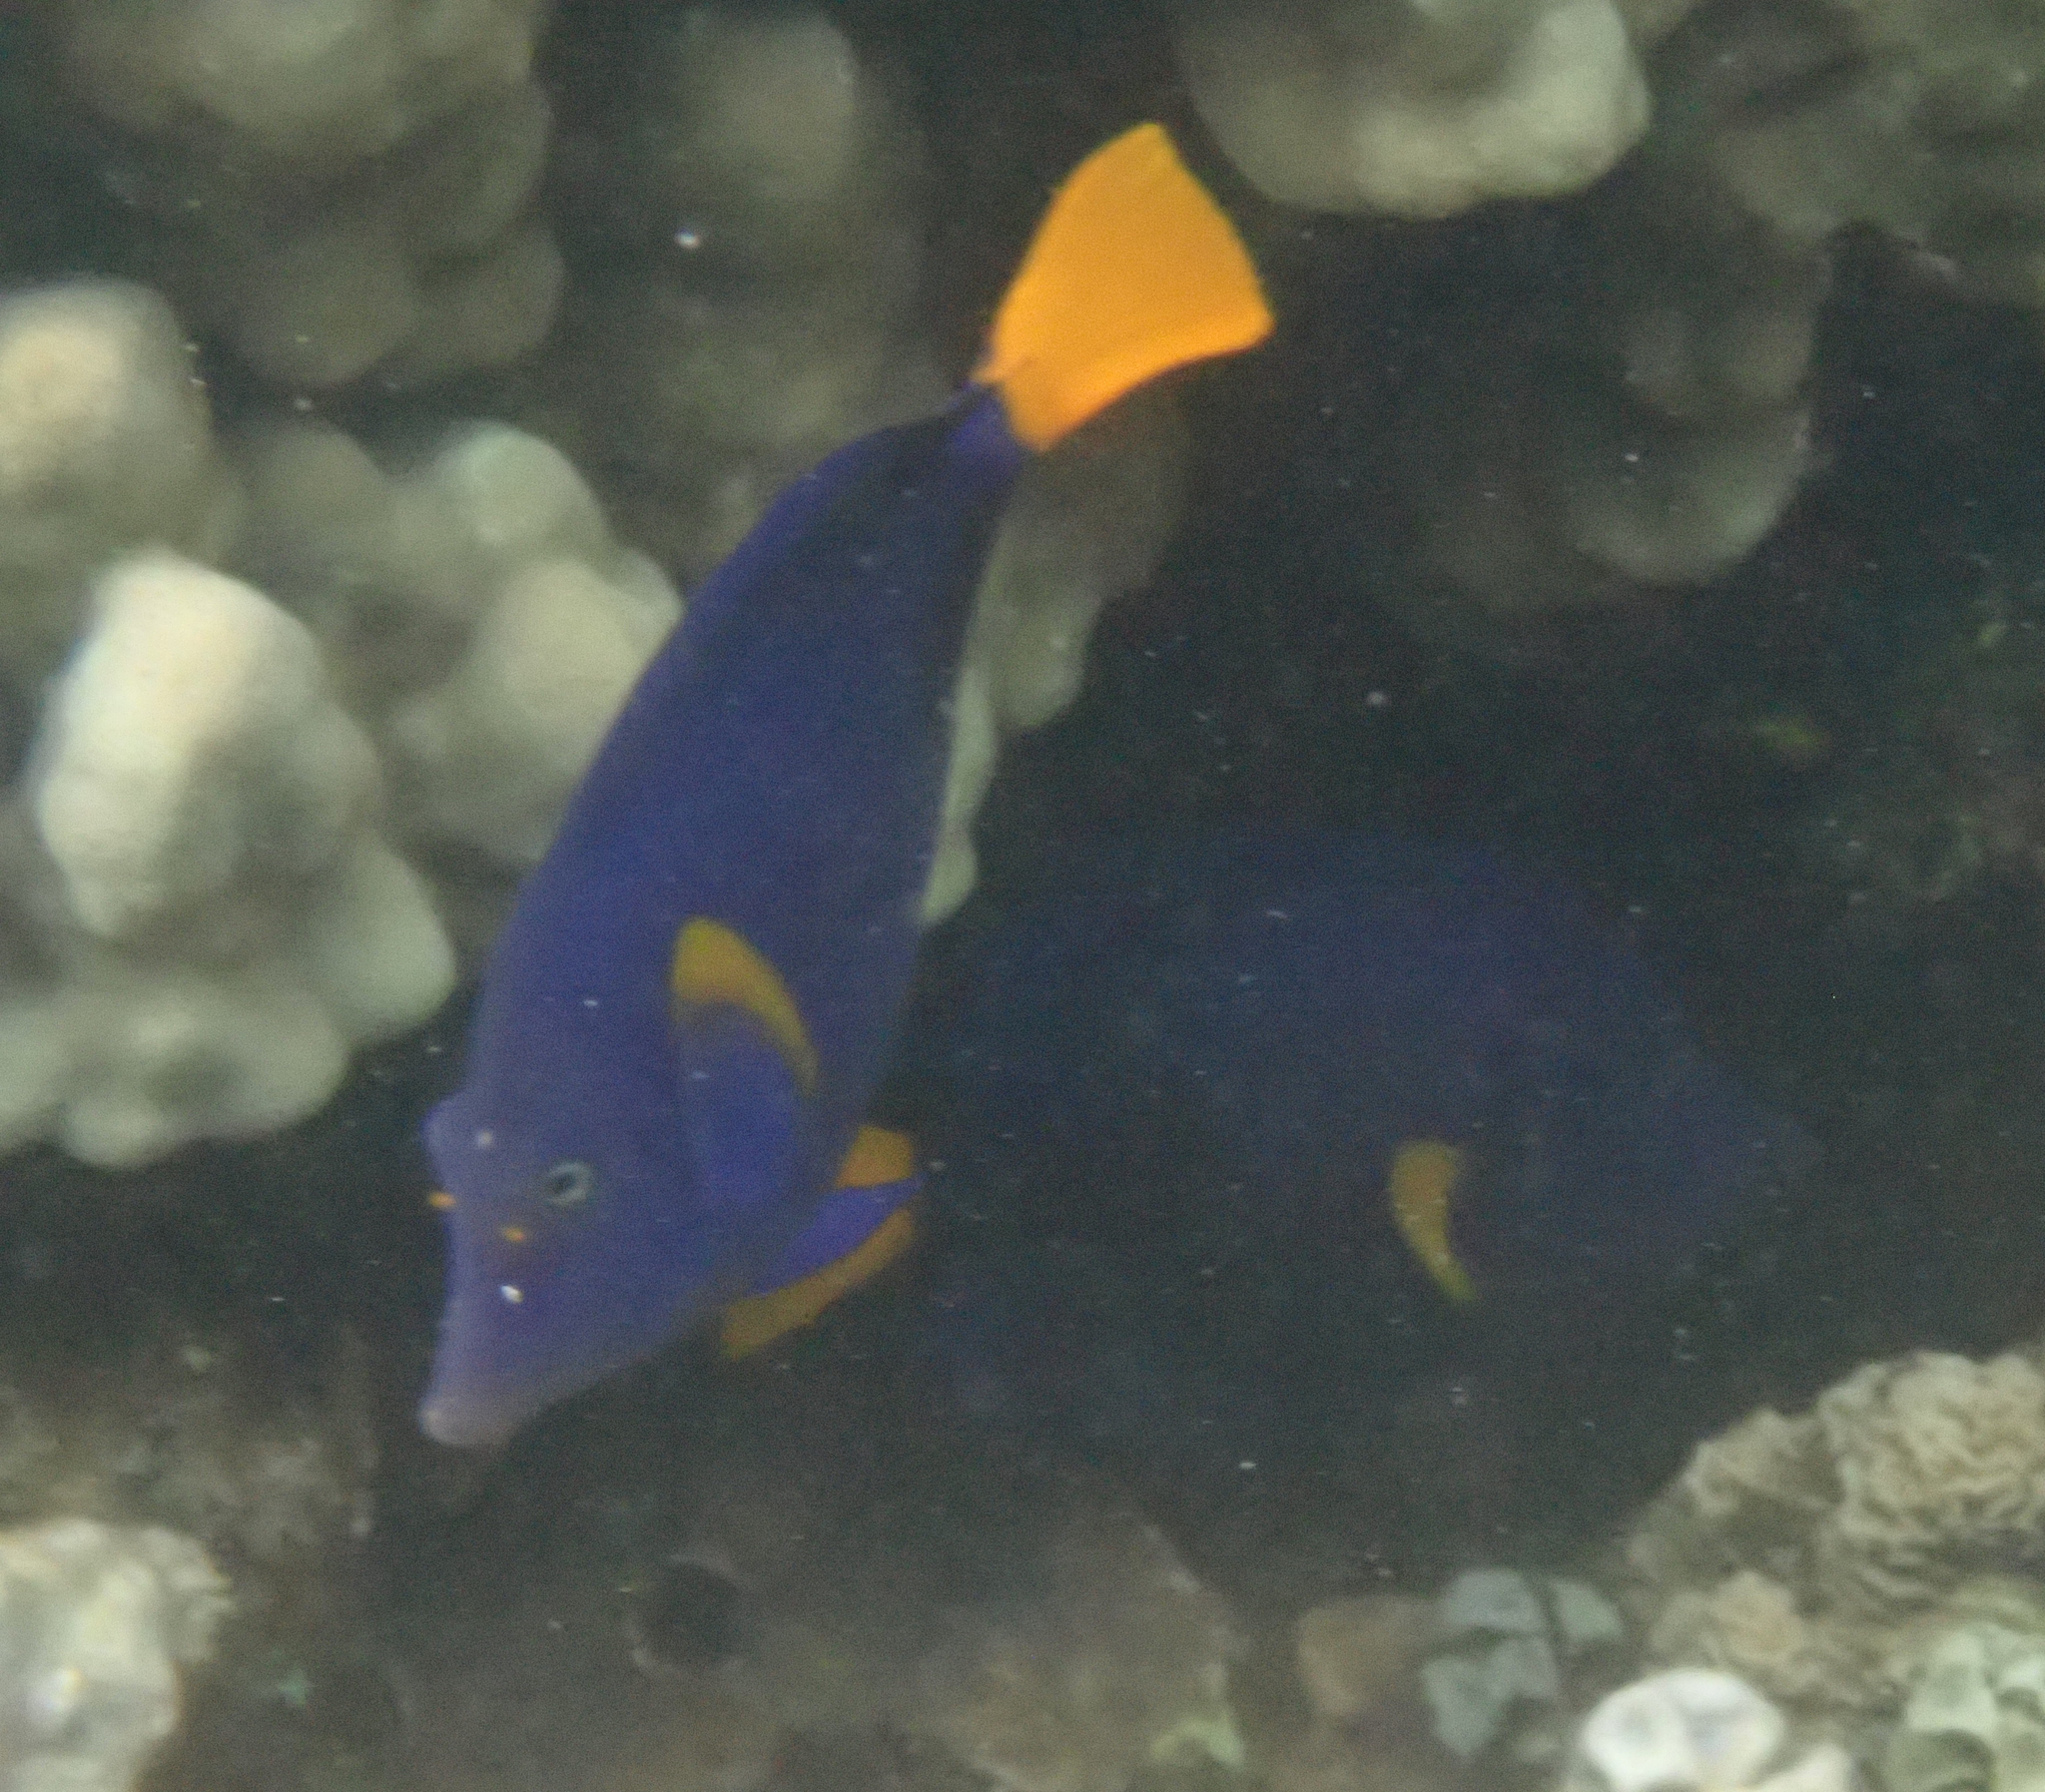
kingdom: Animalia
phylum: Chordata
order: Perciformes
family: Acanthuridae
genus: Zebrasoma
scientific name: Zebrasoma xanthurum
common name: Purple tang
